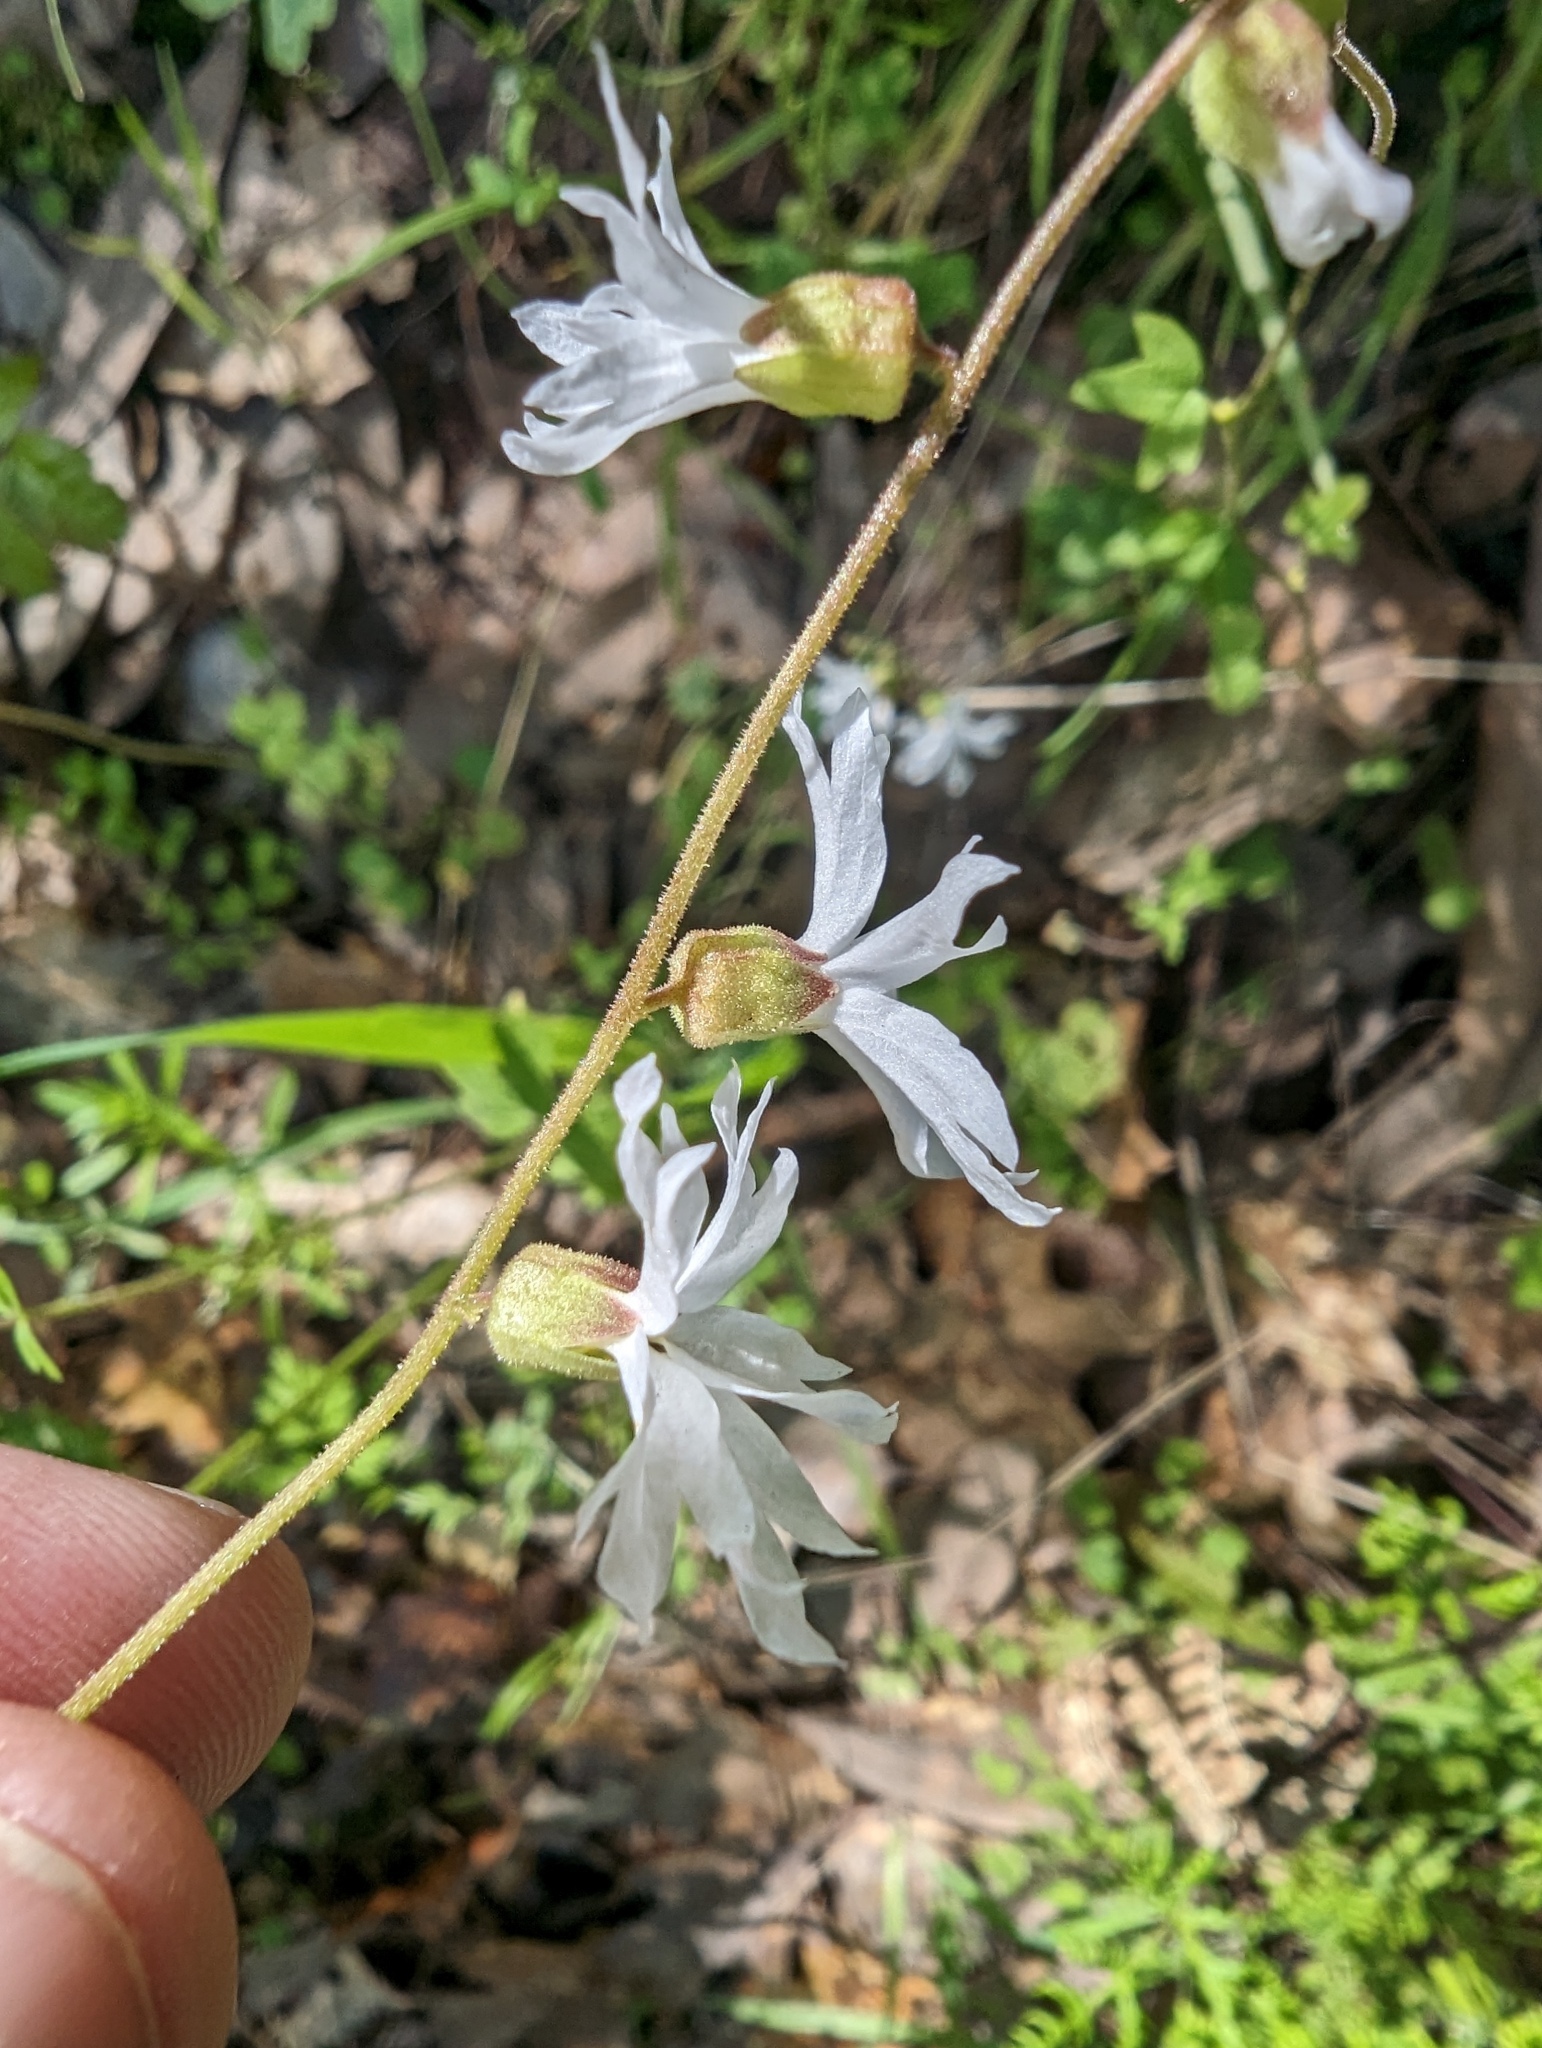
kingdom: Plantae
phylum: Tracheophyta
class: Magnoliopsida
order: Saxifragales
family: Saxifragaceae
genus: Lithophragma
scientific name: Lithophragma heterophyllum
